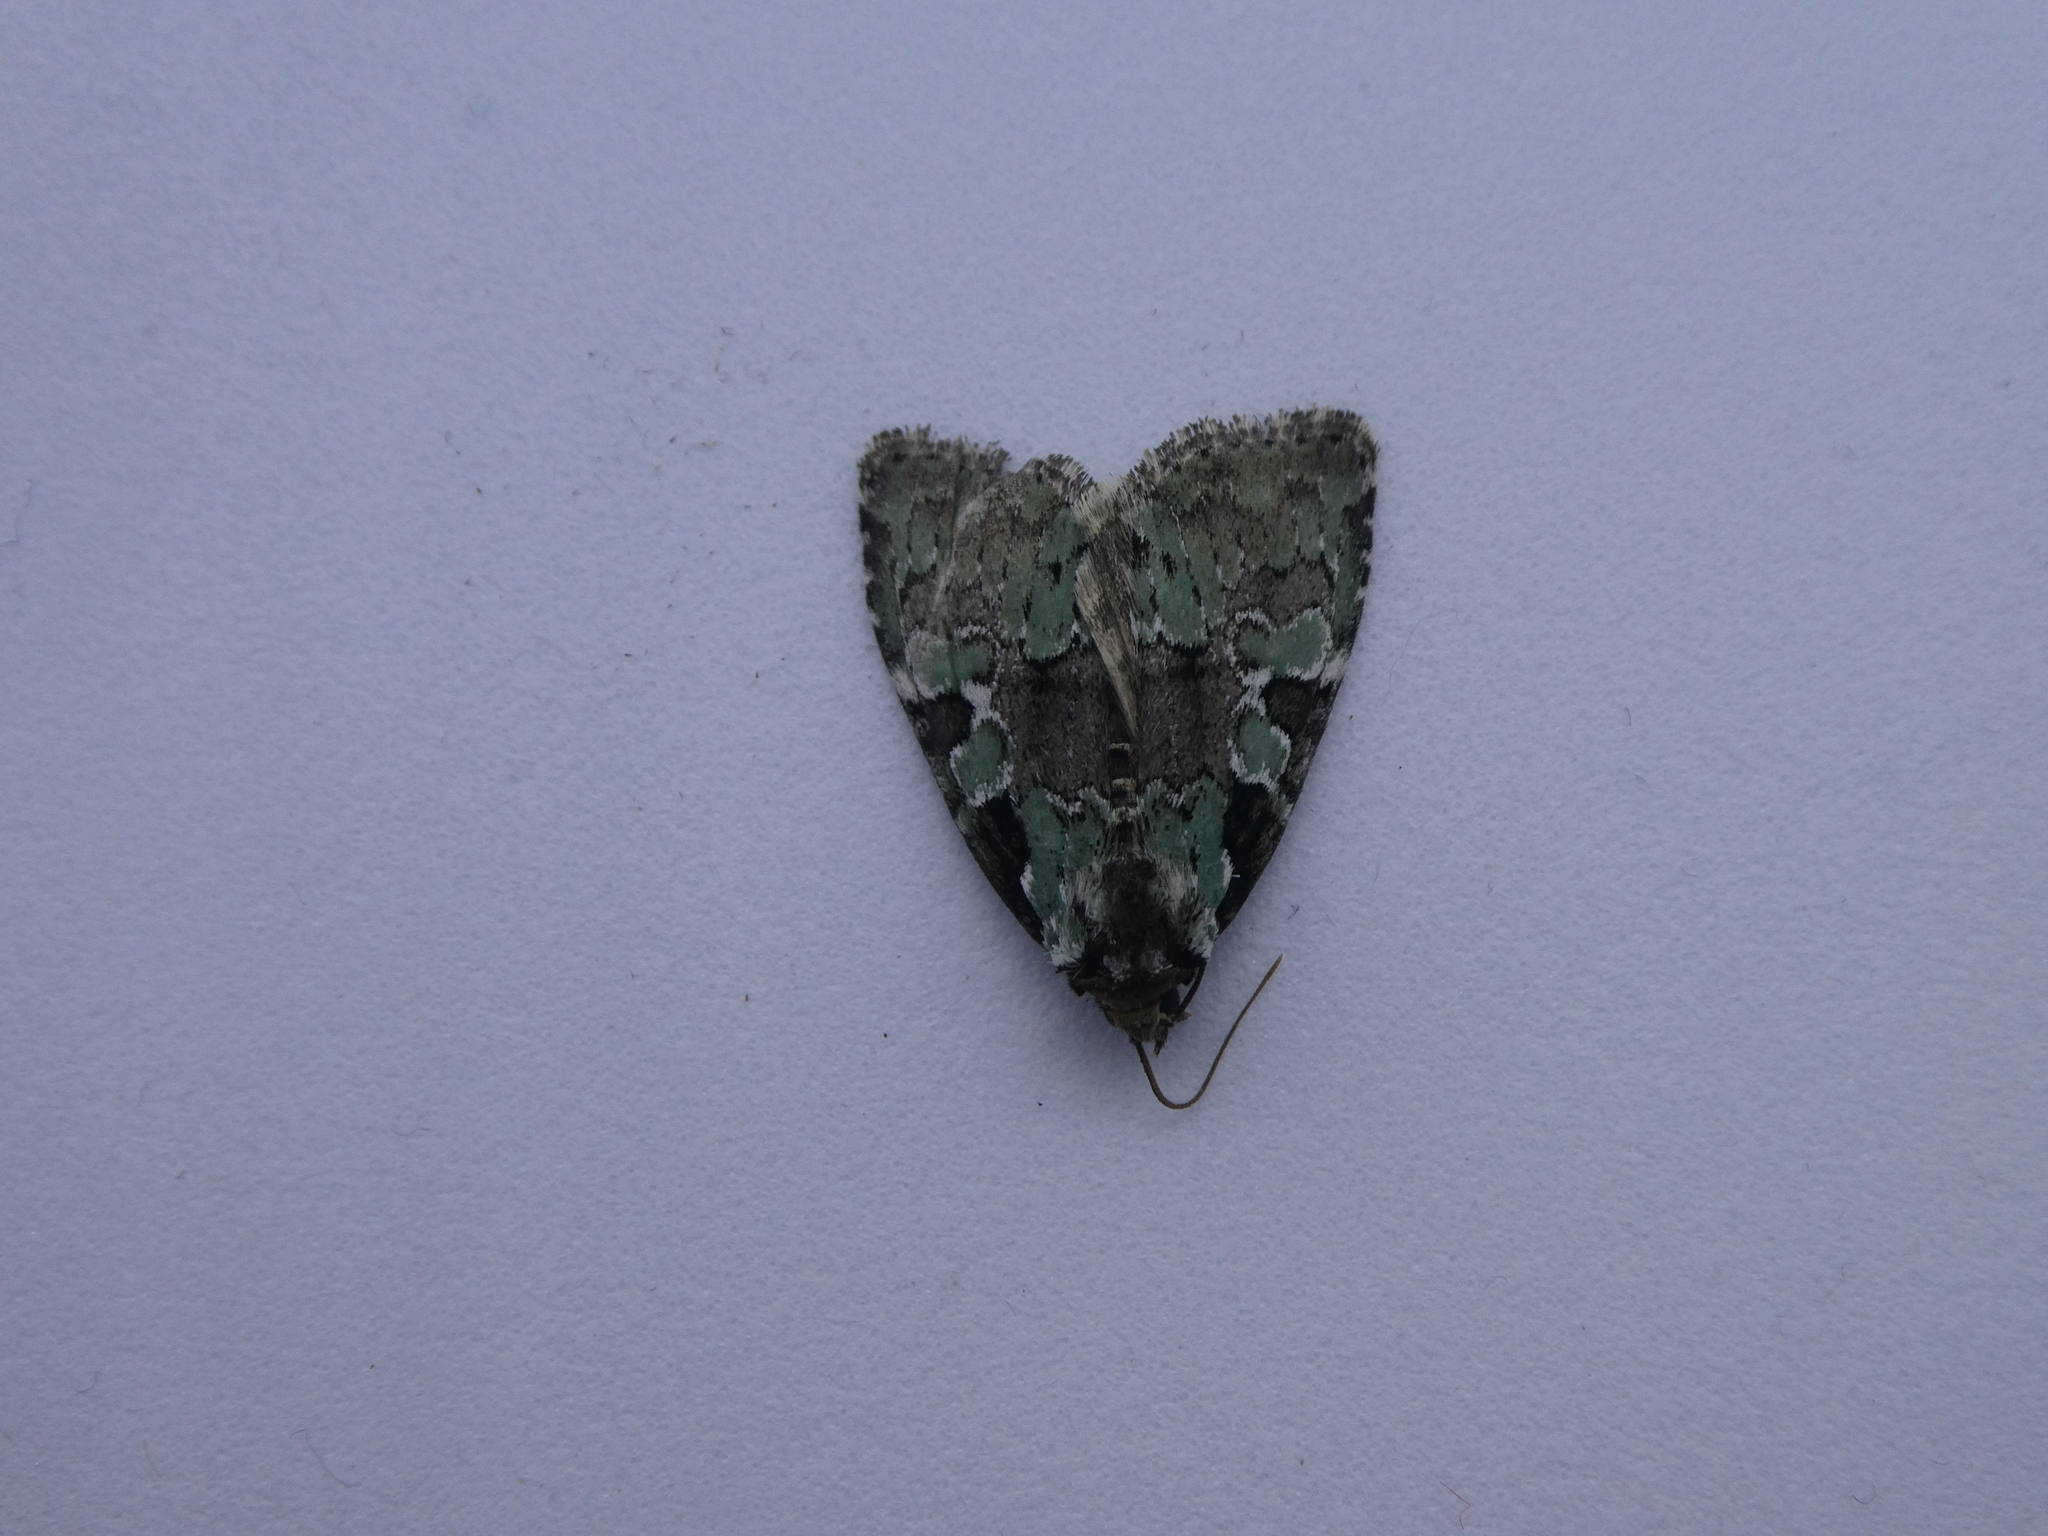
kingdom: Animalia
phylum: Arthropoda
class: Insecta
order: Lepidoptera
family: Noctuidae
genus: Leuconycta
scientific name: Leuconycta lepidula
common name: Marbled-green leuconycta moth
